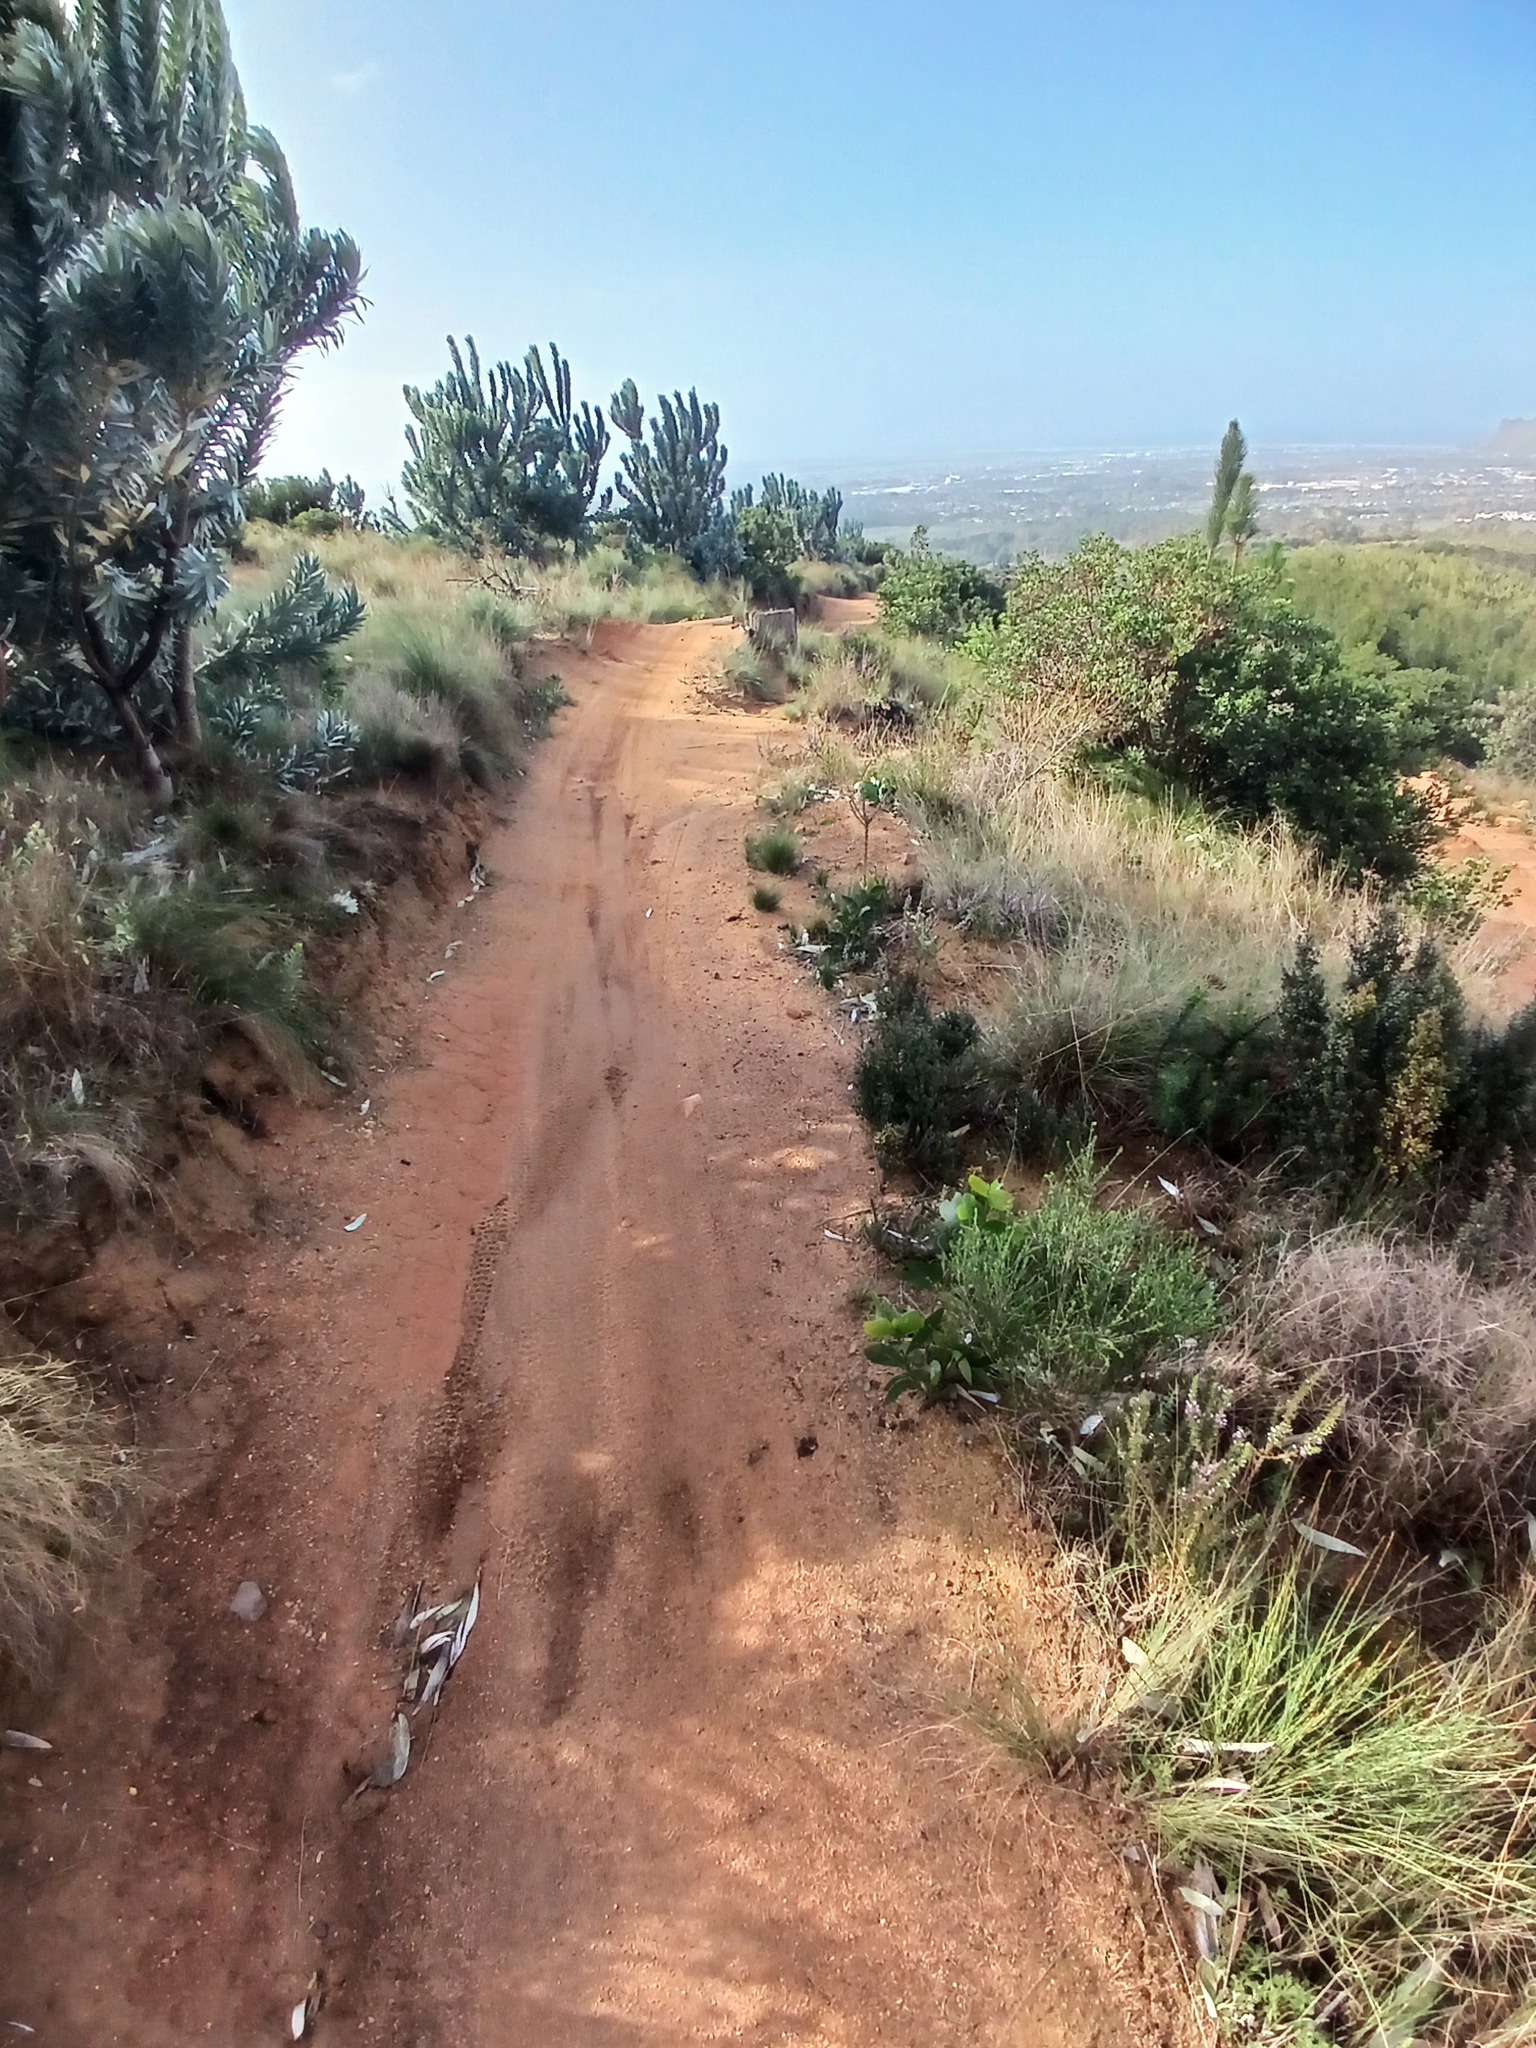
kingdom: Plantae
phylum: Tracheophyta
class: Magnoliopsida
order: Proteales
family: Proteaceae
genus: Leucadendron
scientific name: Leucadendron argenteum
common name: Cape silver tree
